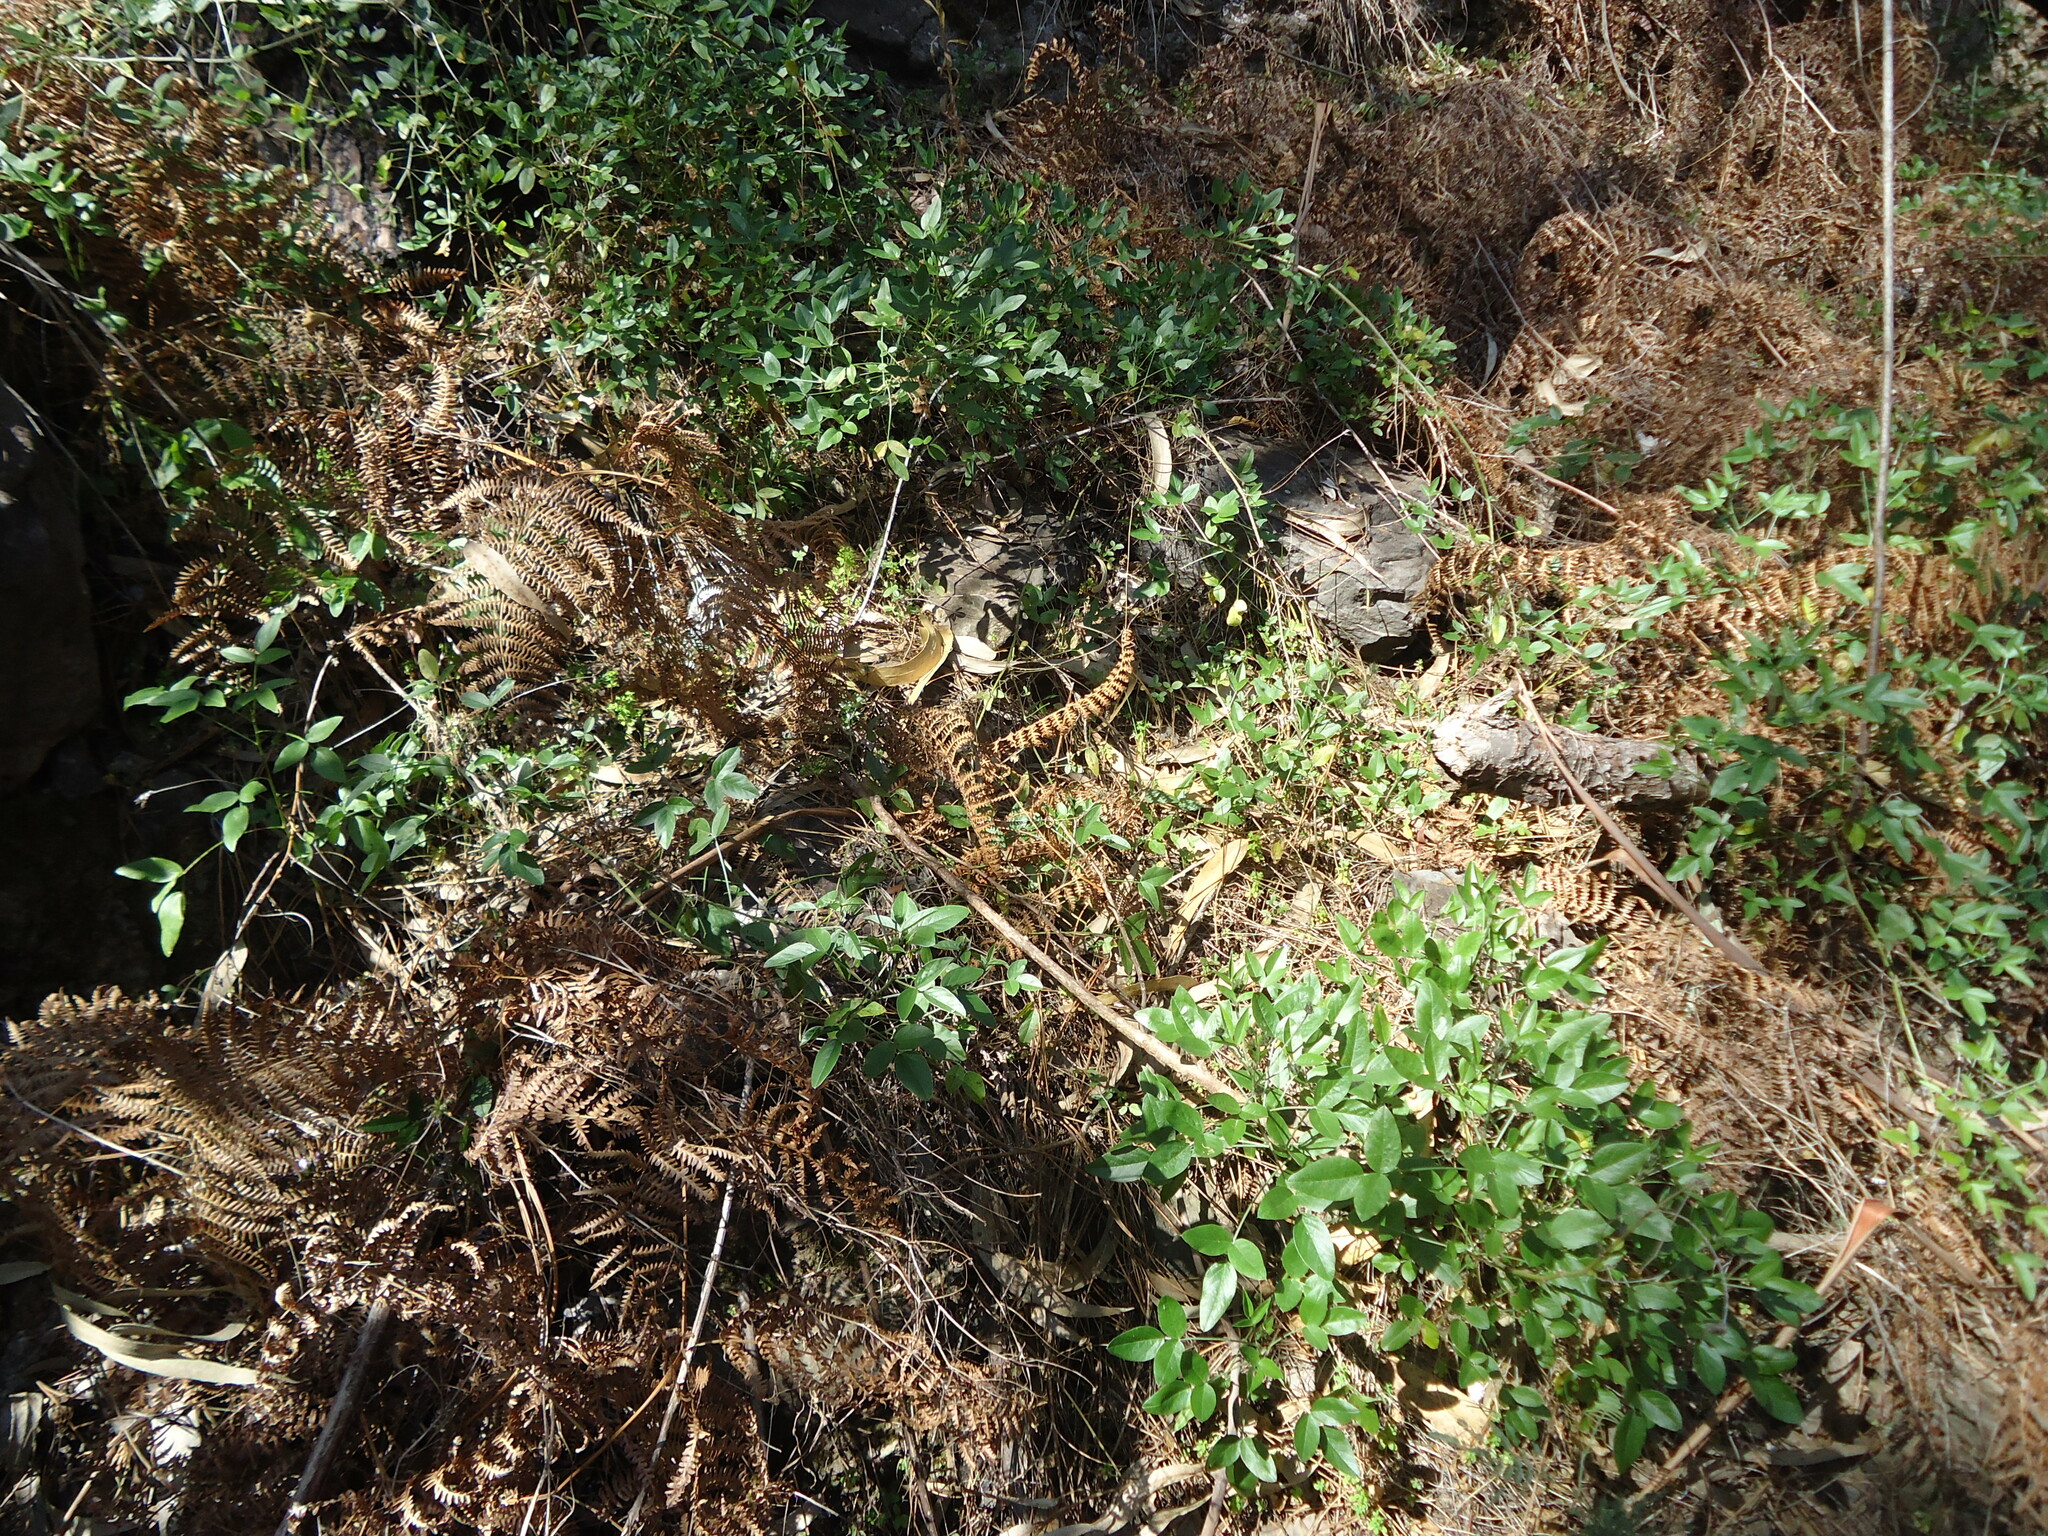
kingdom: Plantae
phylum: Tracheophyta
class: Magnoliopsida
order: Fabales
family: Fabaceae
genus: Bituminaria
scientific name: Bituminaria bituminosa
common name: Arabian pea
